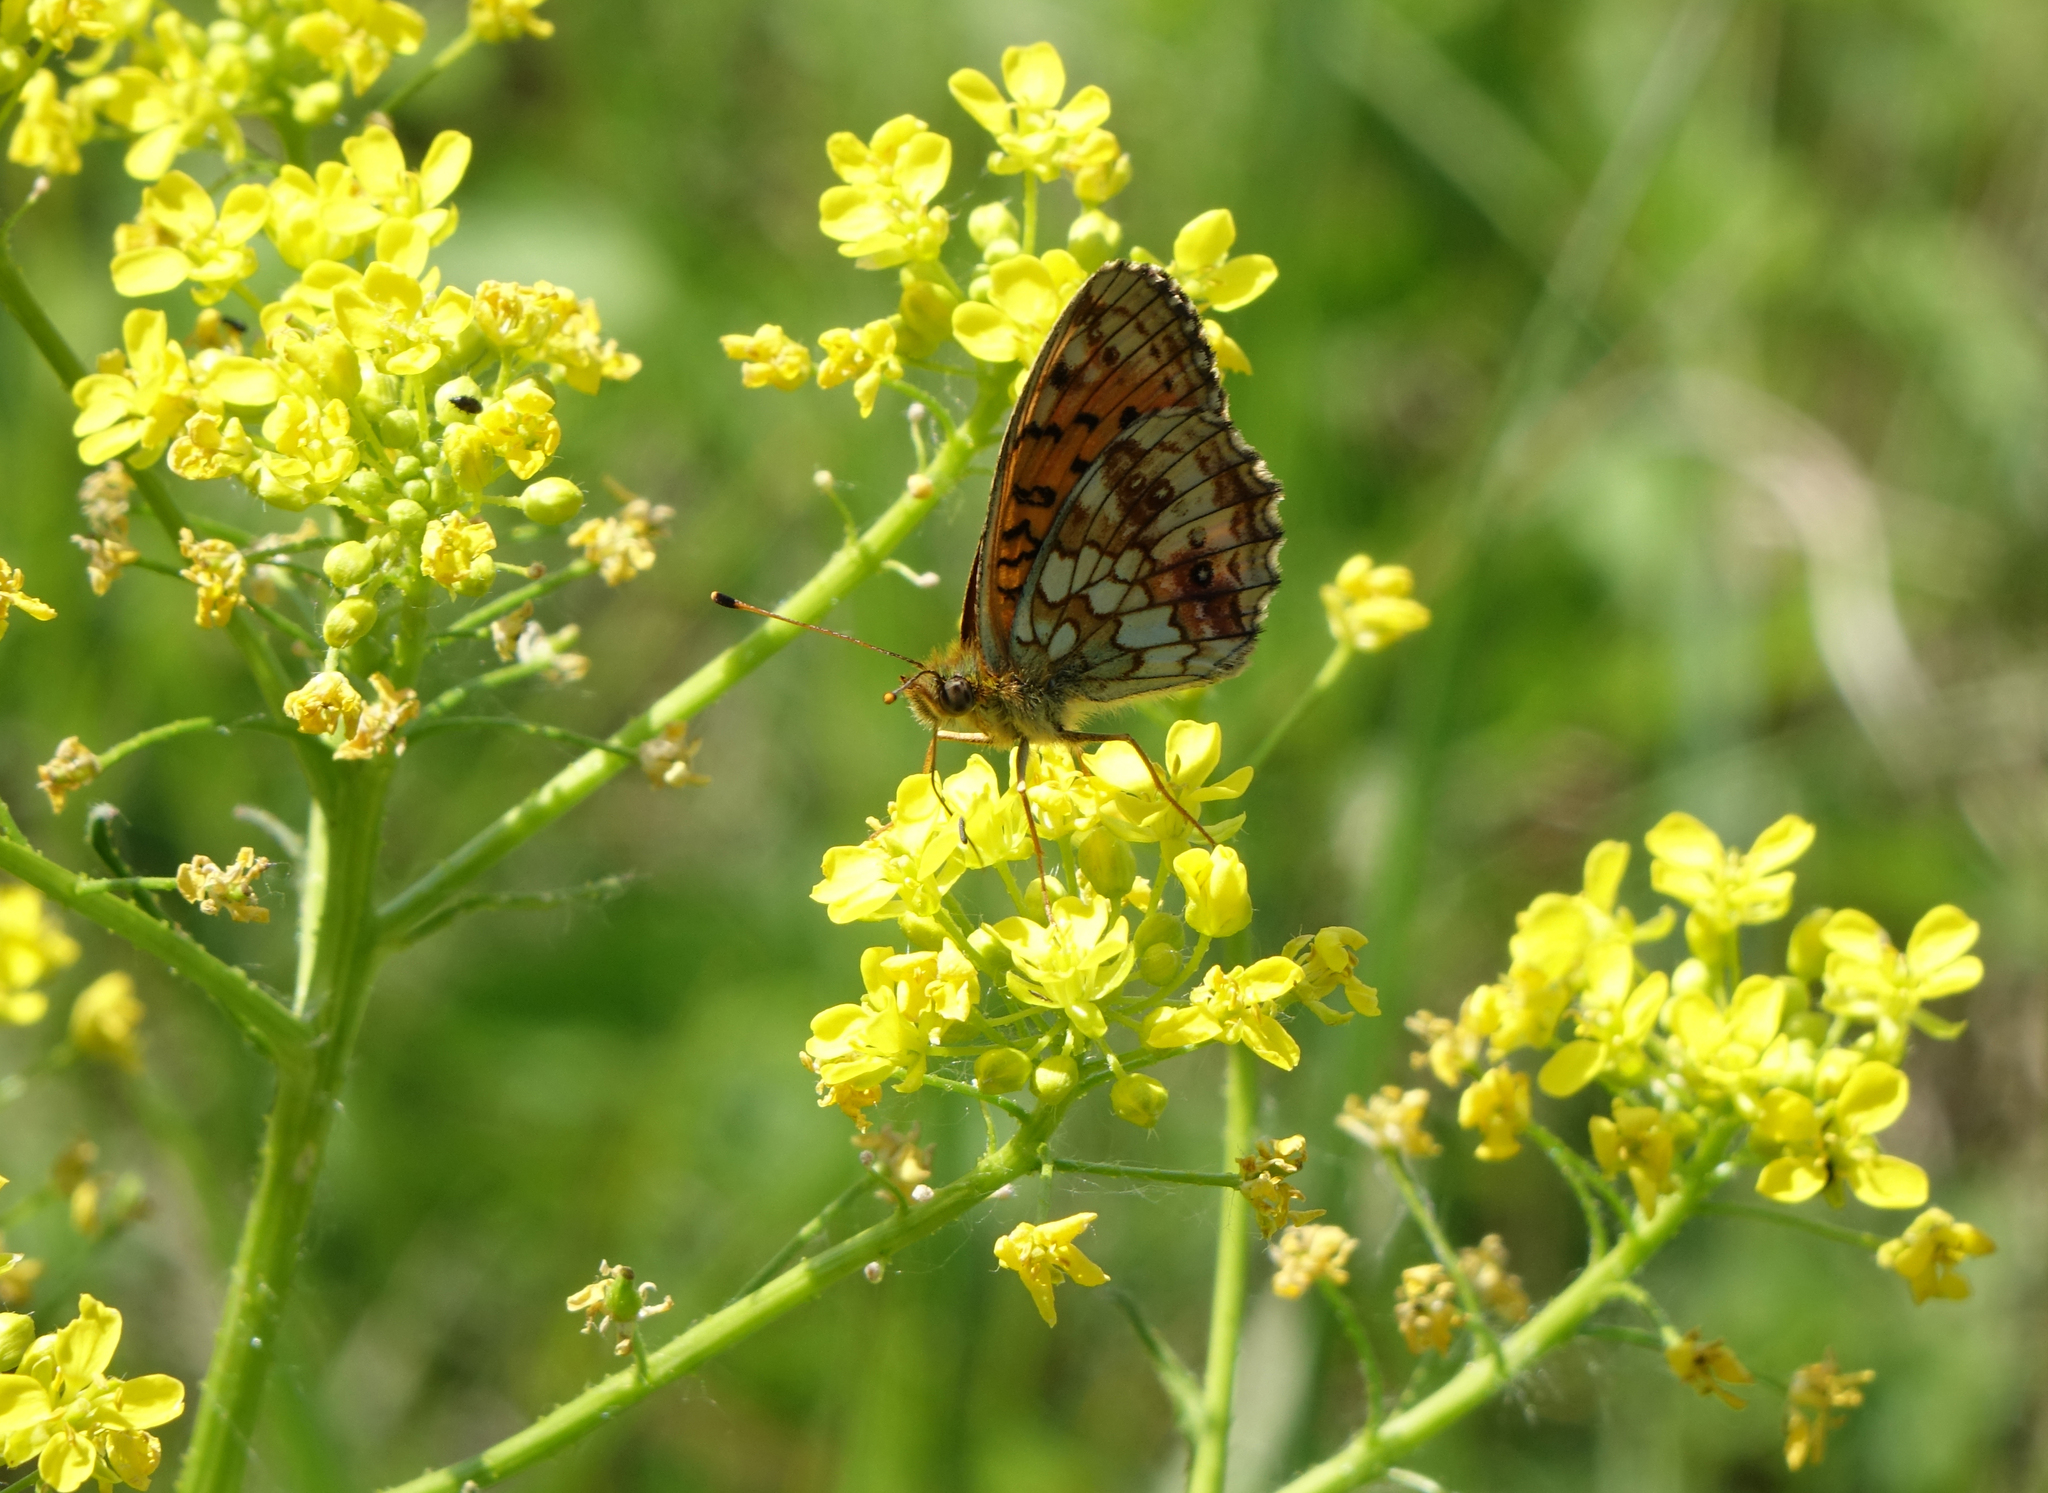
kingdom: Plantae
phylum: Tracheophyta
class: Magnoliopsida
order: Brassicales
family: Brassicaceae
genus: Bunias
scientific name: Bunias orientalis
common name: Warty-cabbage
